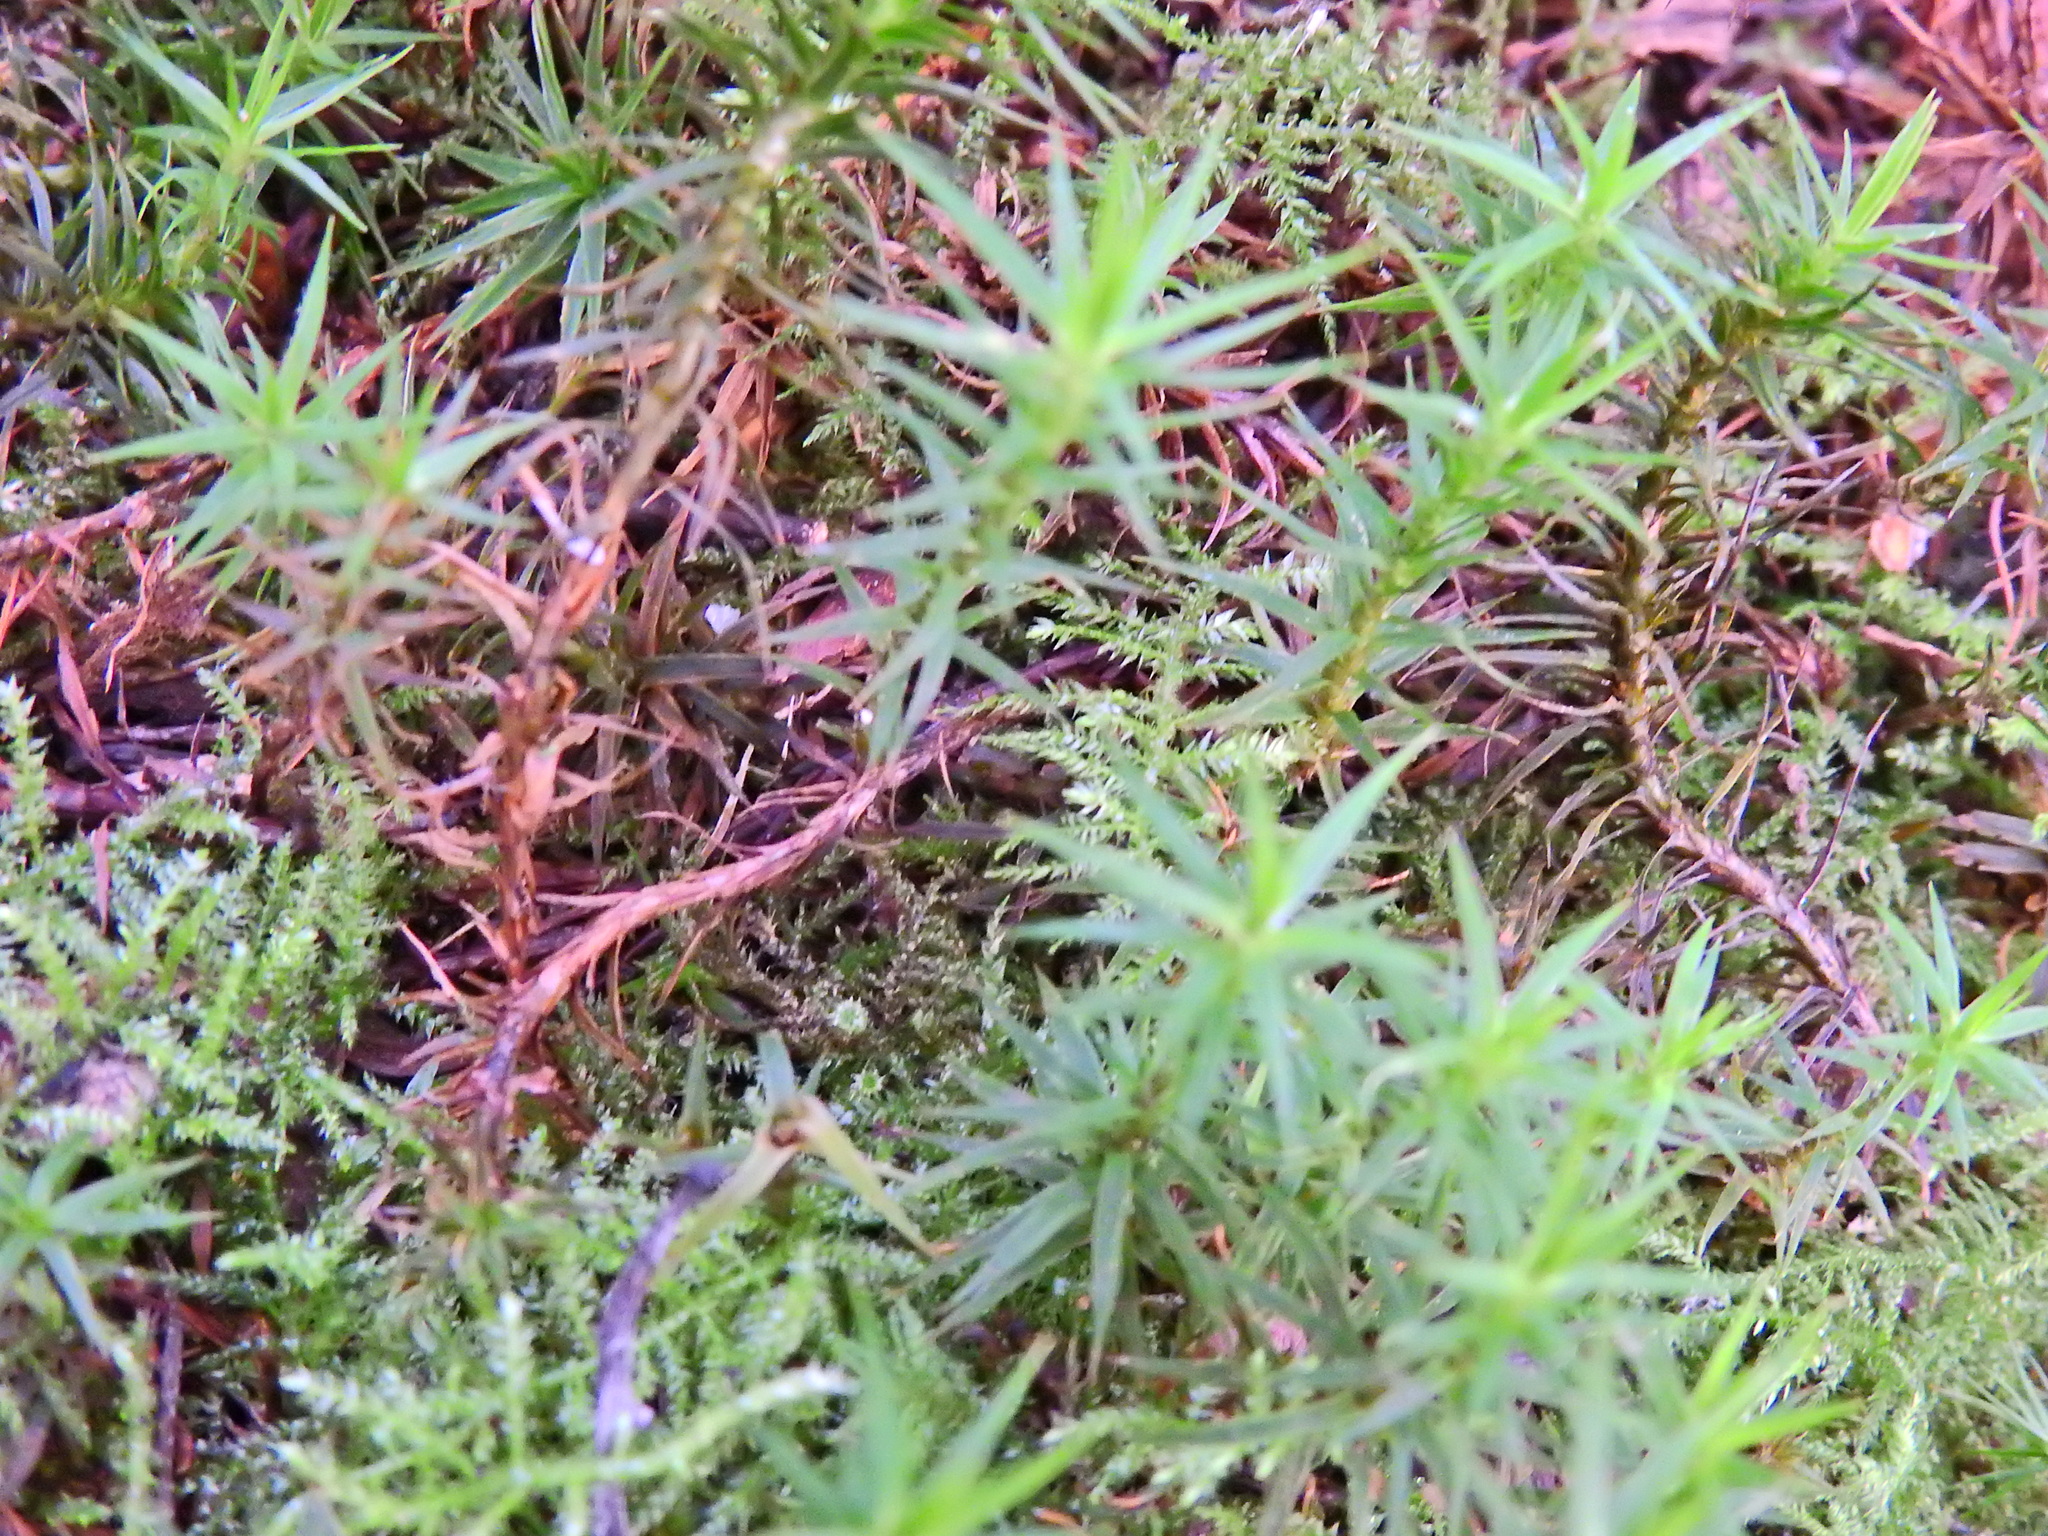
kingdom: Plantae
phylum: Bryophyta
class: Polytrichopsida
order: Polytrichales
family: Polytrichaceae
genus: Polytrichum
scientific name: Polytrichum formosum
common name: Bank haircap moss
